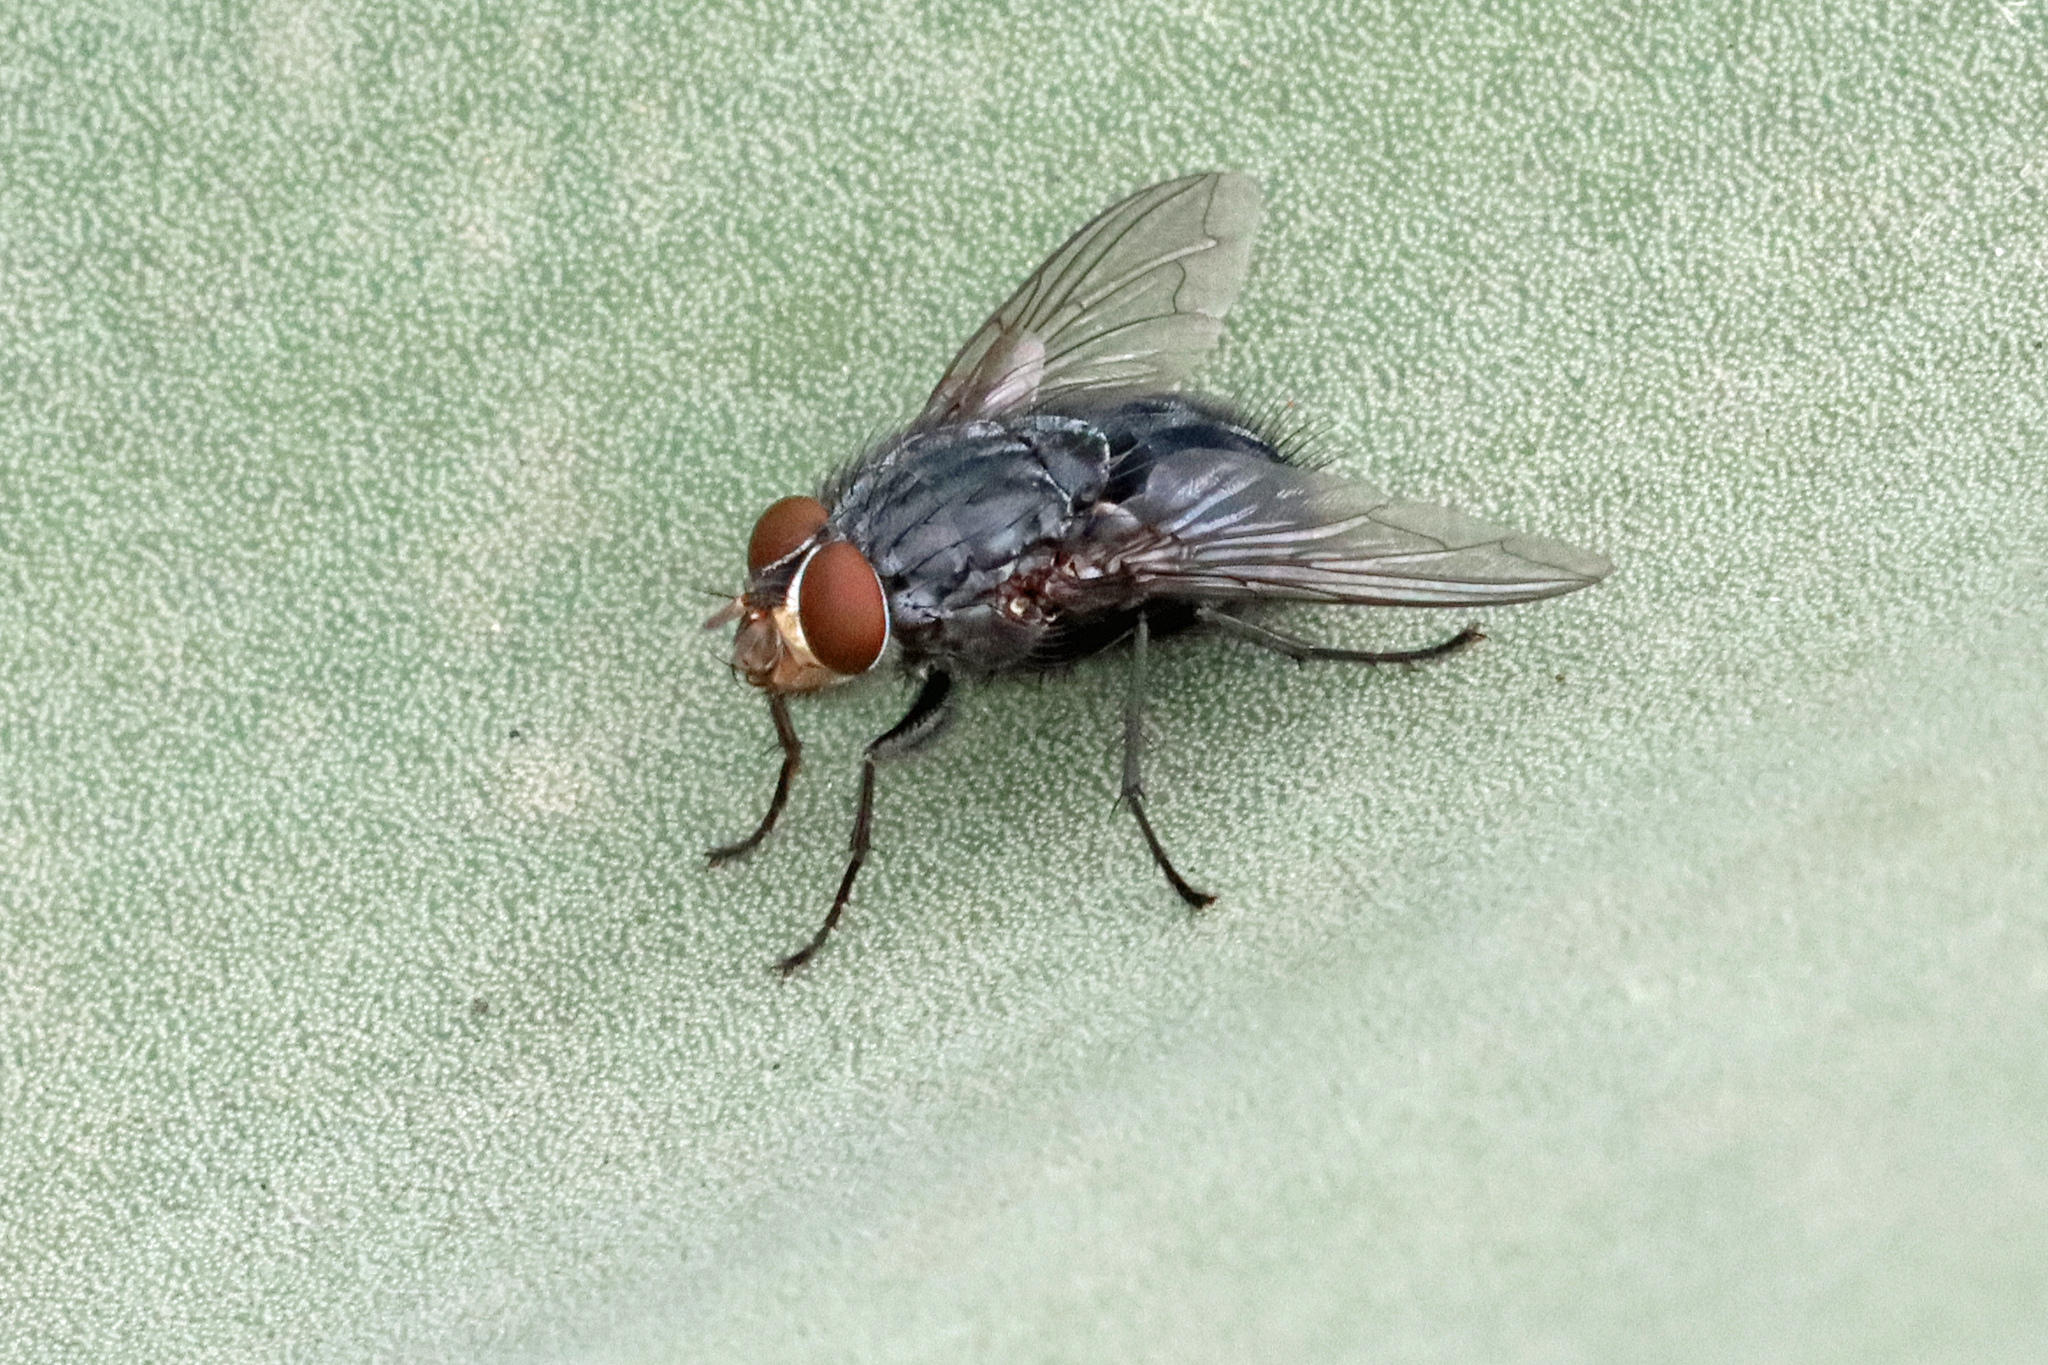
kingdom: Animalia
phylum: Arthropoda
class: Insecta
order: Diptera
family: Calliphoridae
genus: Calliphora
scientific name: Calliphora vicina
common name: Common blow flie
